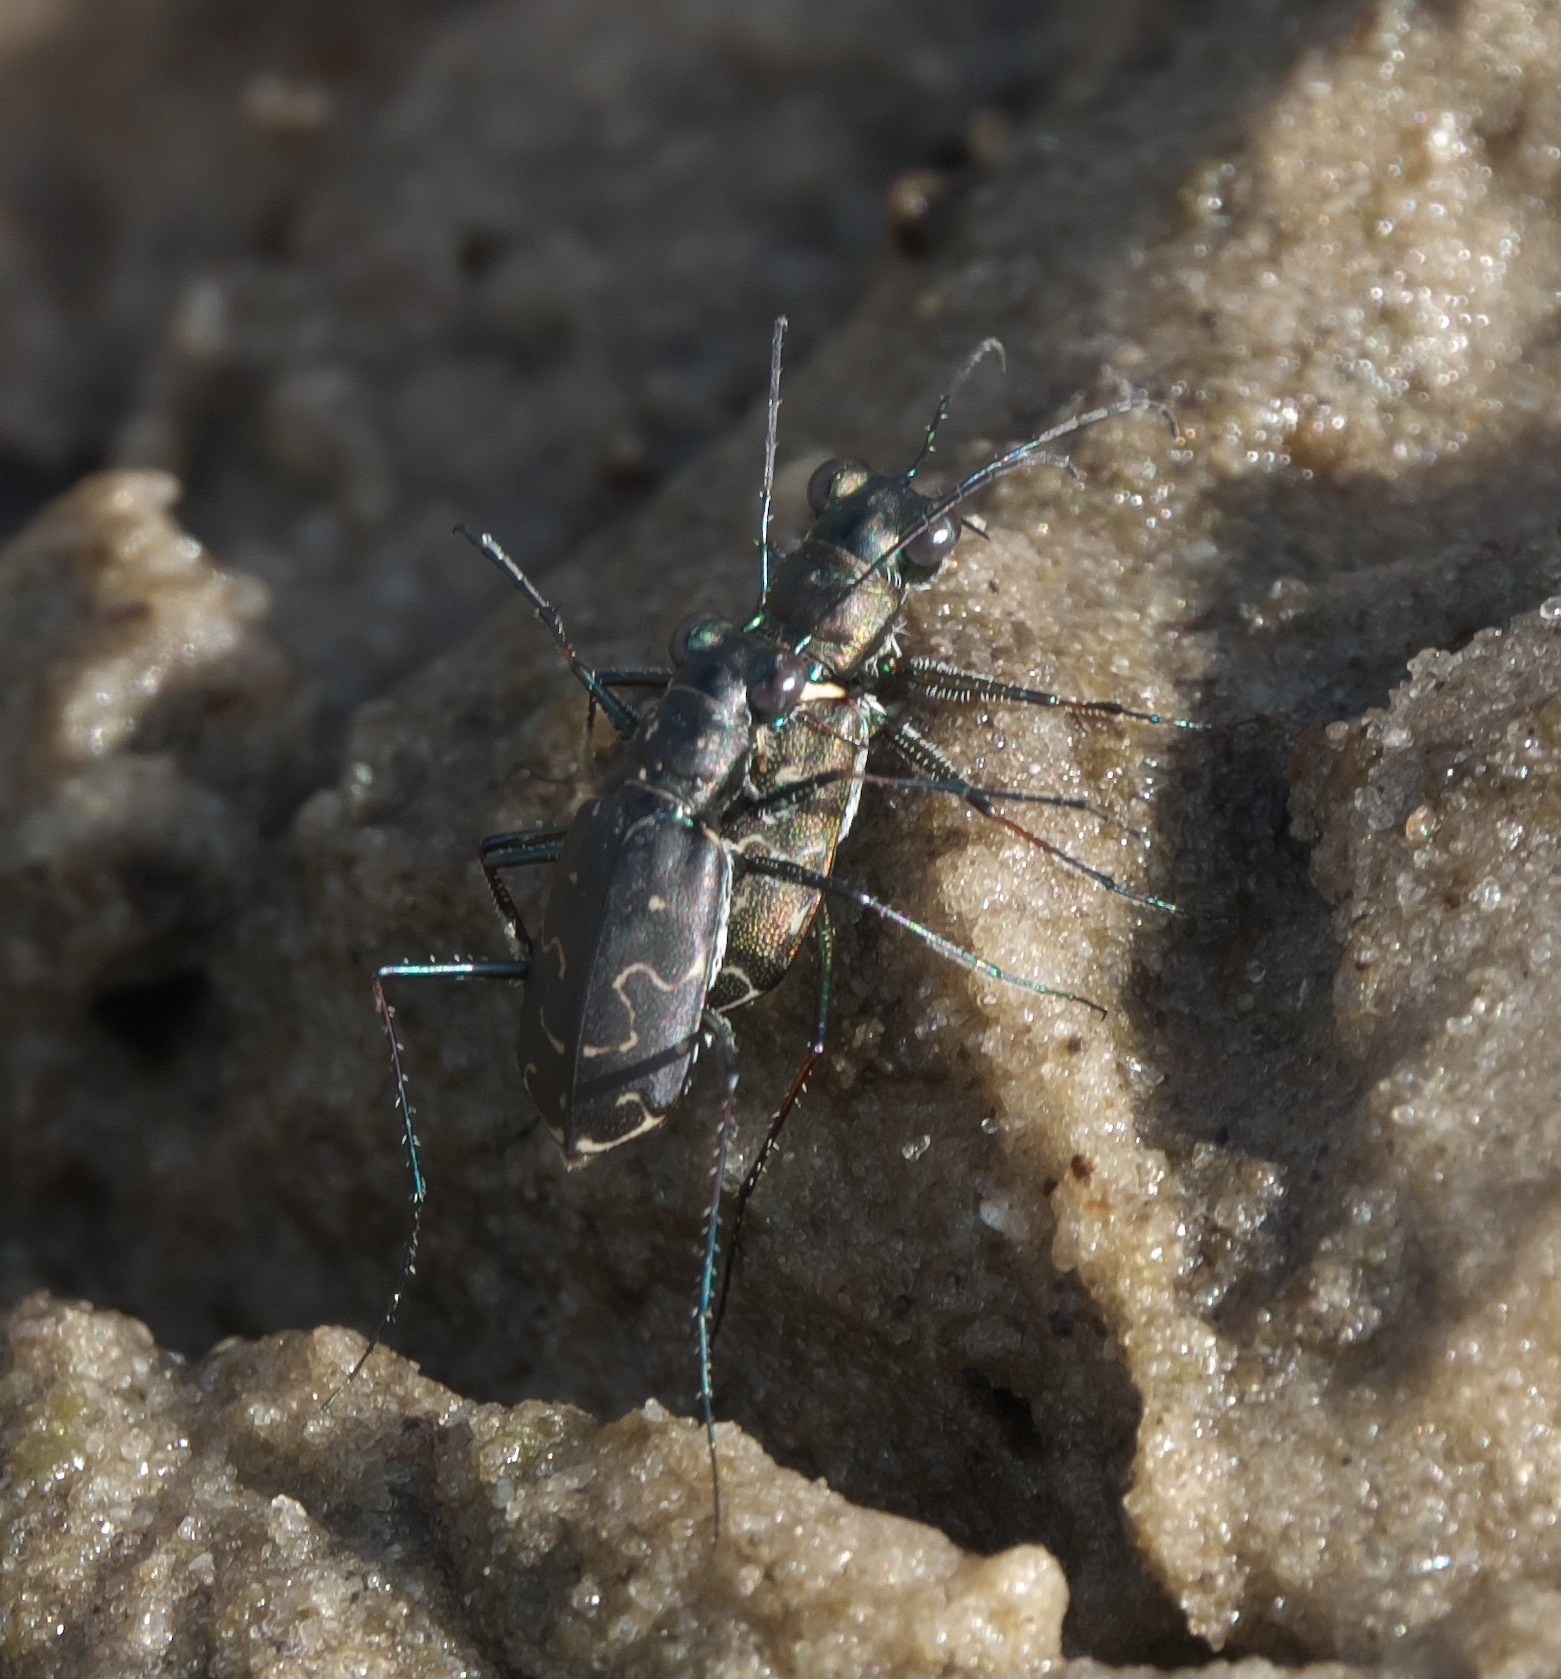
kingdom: Animalia
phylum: Arthropoda
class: Insecta
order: Coleoptera
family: Carabidae
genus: Cicindela
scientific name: Cicindela trifasciata
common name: Mudflat tiger beetle
